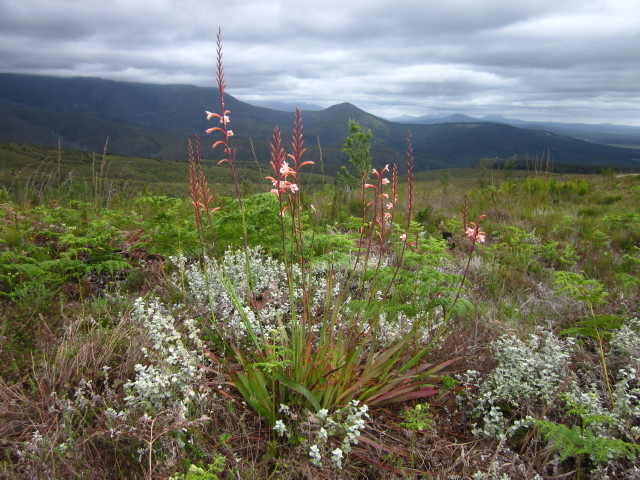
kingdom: Plantae
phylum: Tracheophyta
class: Liliopsida
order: Asparagales
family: Iridaceae
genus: Watsonia
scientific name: Watsonia fourcadei
